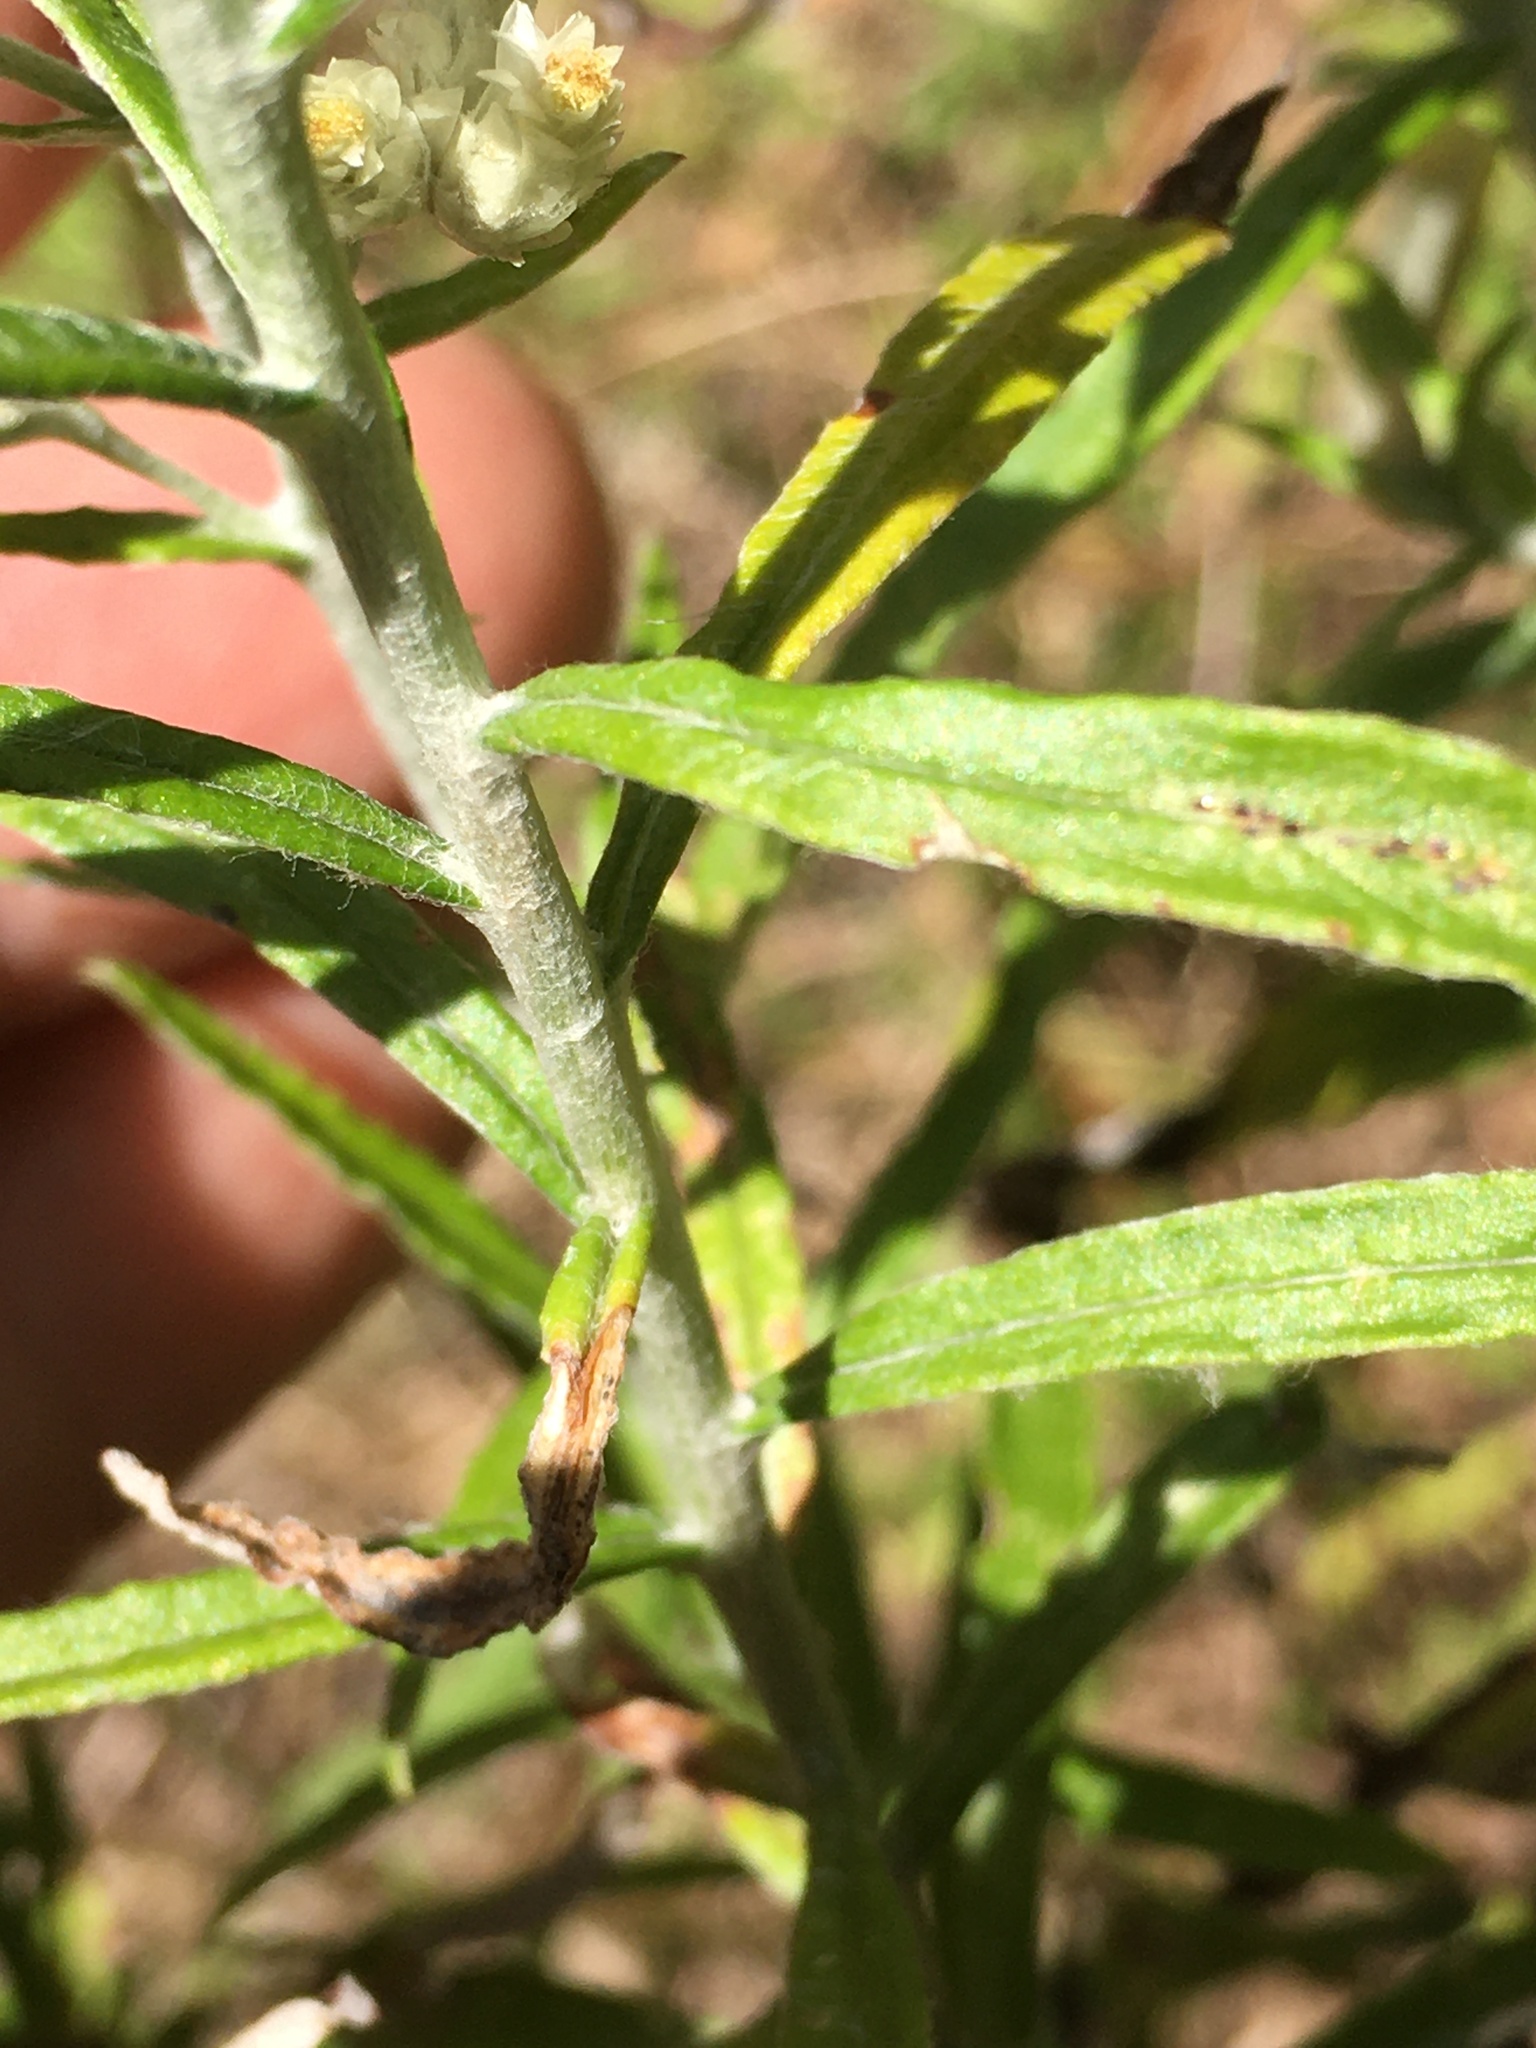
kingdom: Plantae
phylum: Tracheophyta
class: Magnoliopsida
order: Asterales
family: Asteraceae
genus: Pseudognaphalium
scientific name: Pseudognaphalium obtusifolium
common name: Eastern rabbit-tobacco
